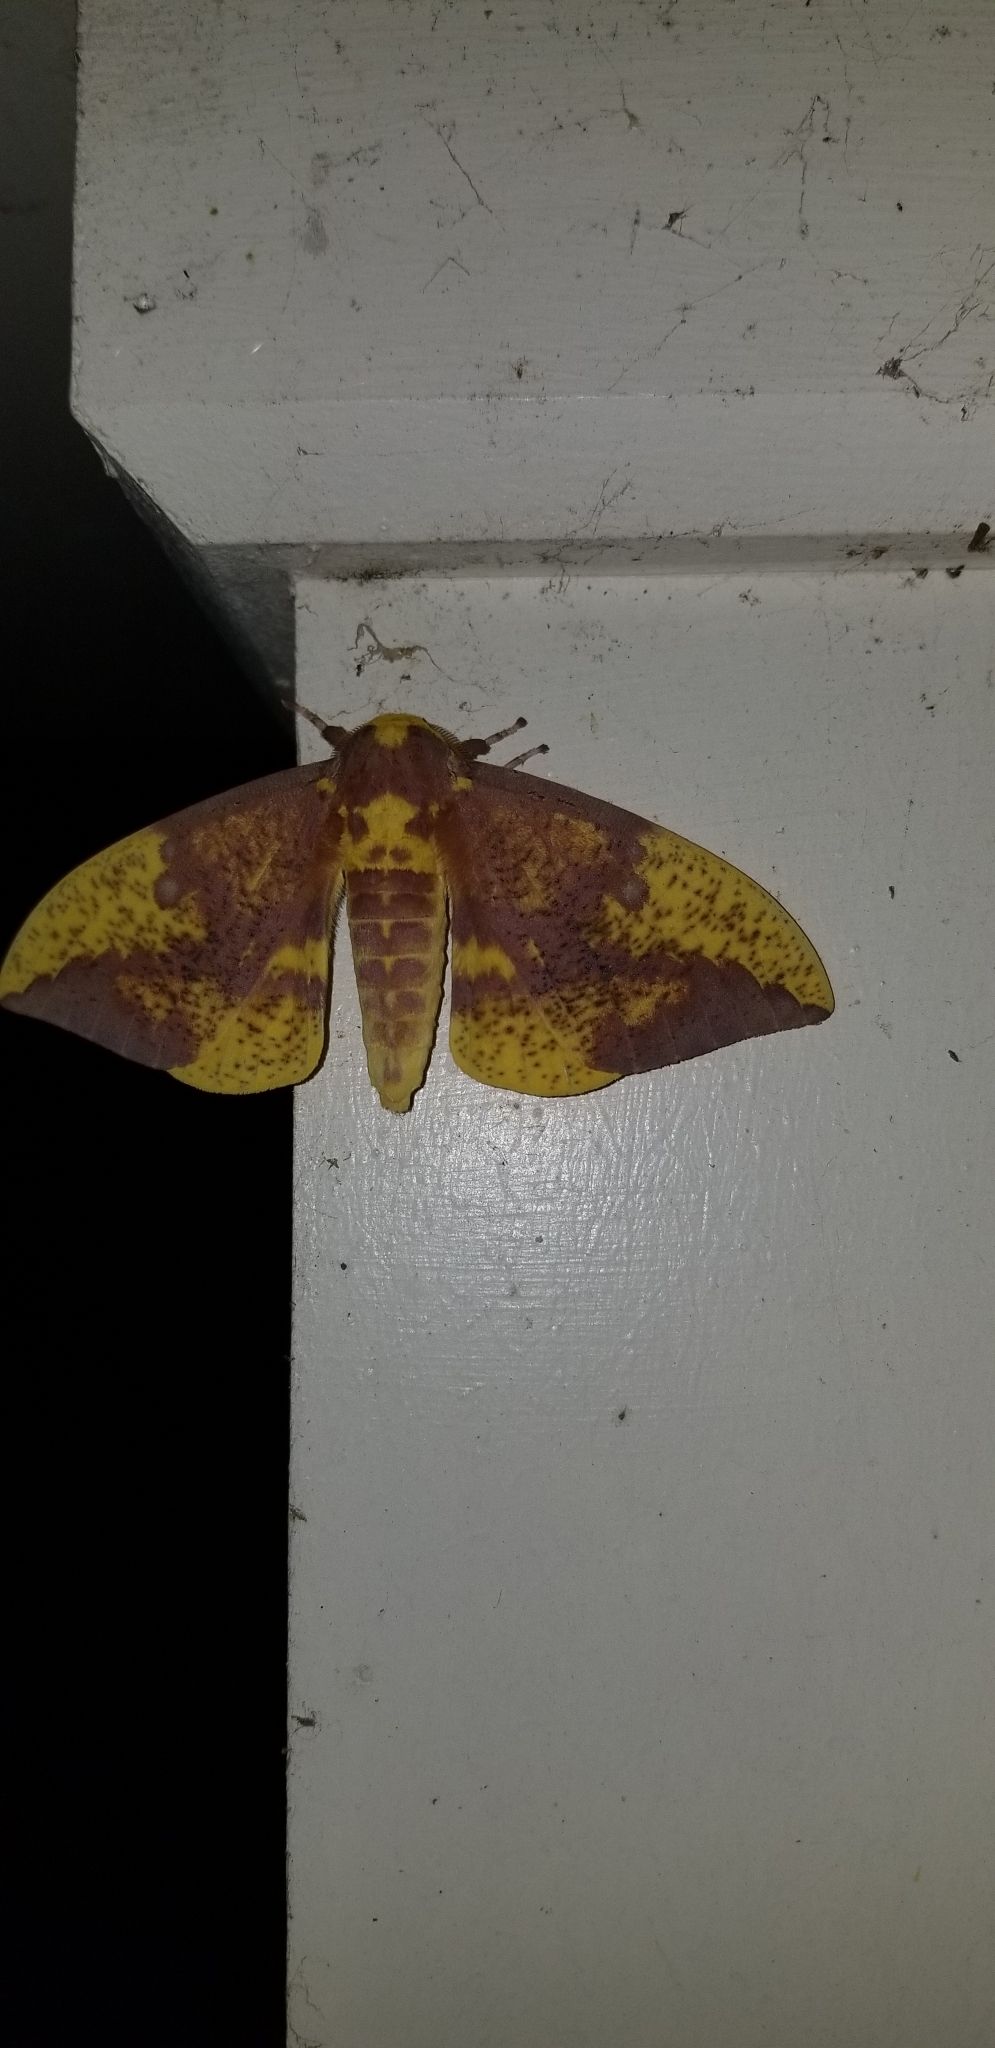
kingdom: Animalia
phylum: Arthropoda
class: Insecta
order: Lepidoptera
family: Saturniidae
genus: Eacles
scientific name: Eacles imperialis
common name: Imperial moth
